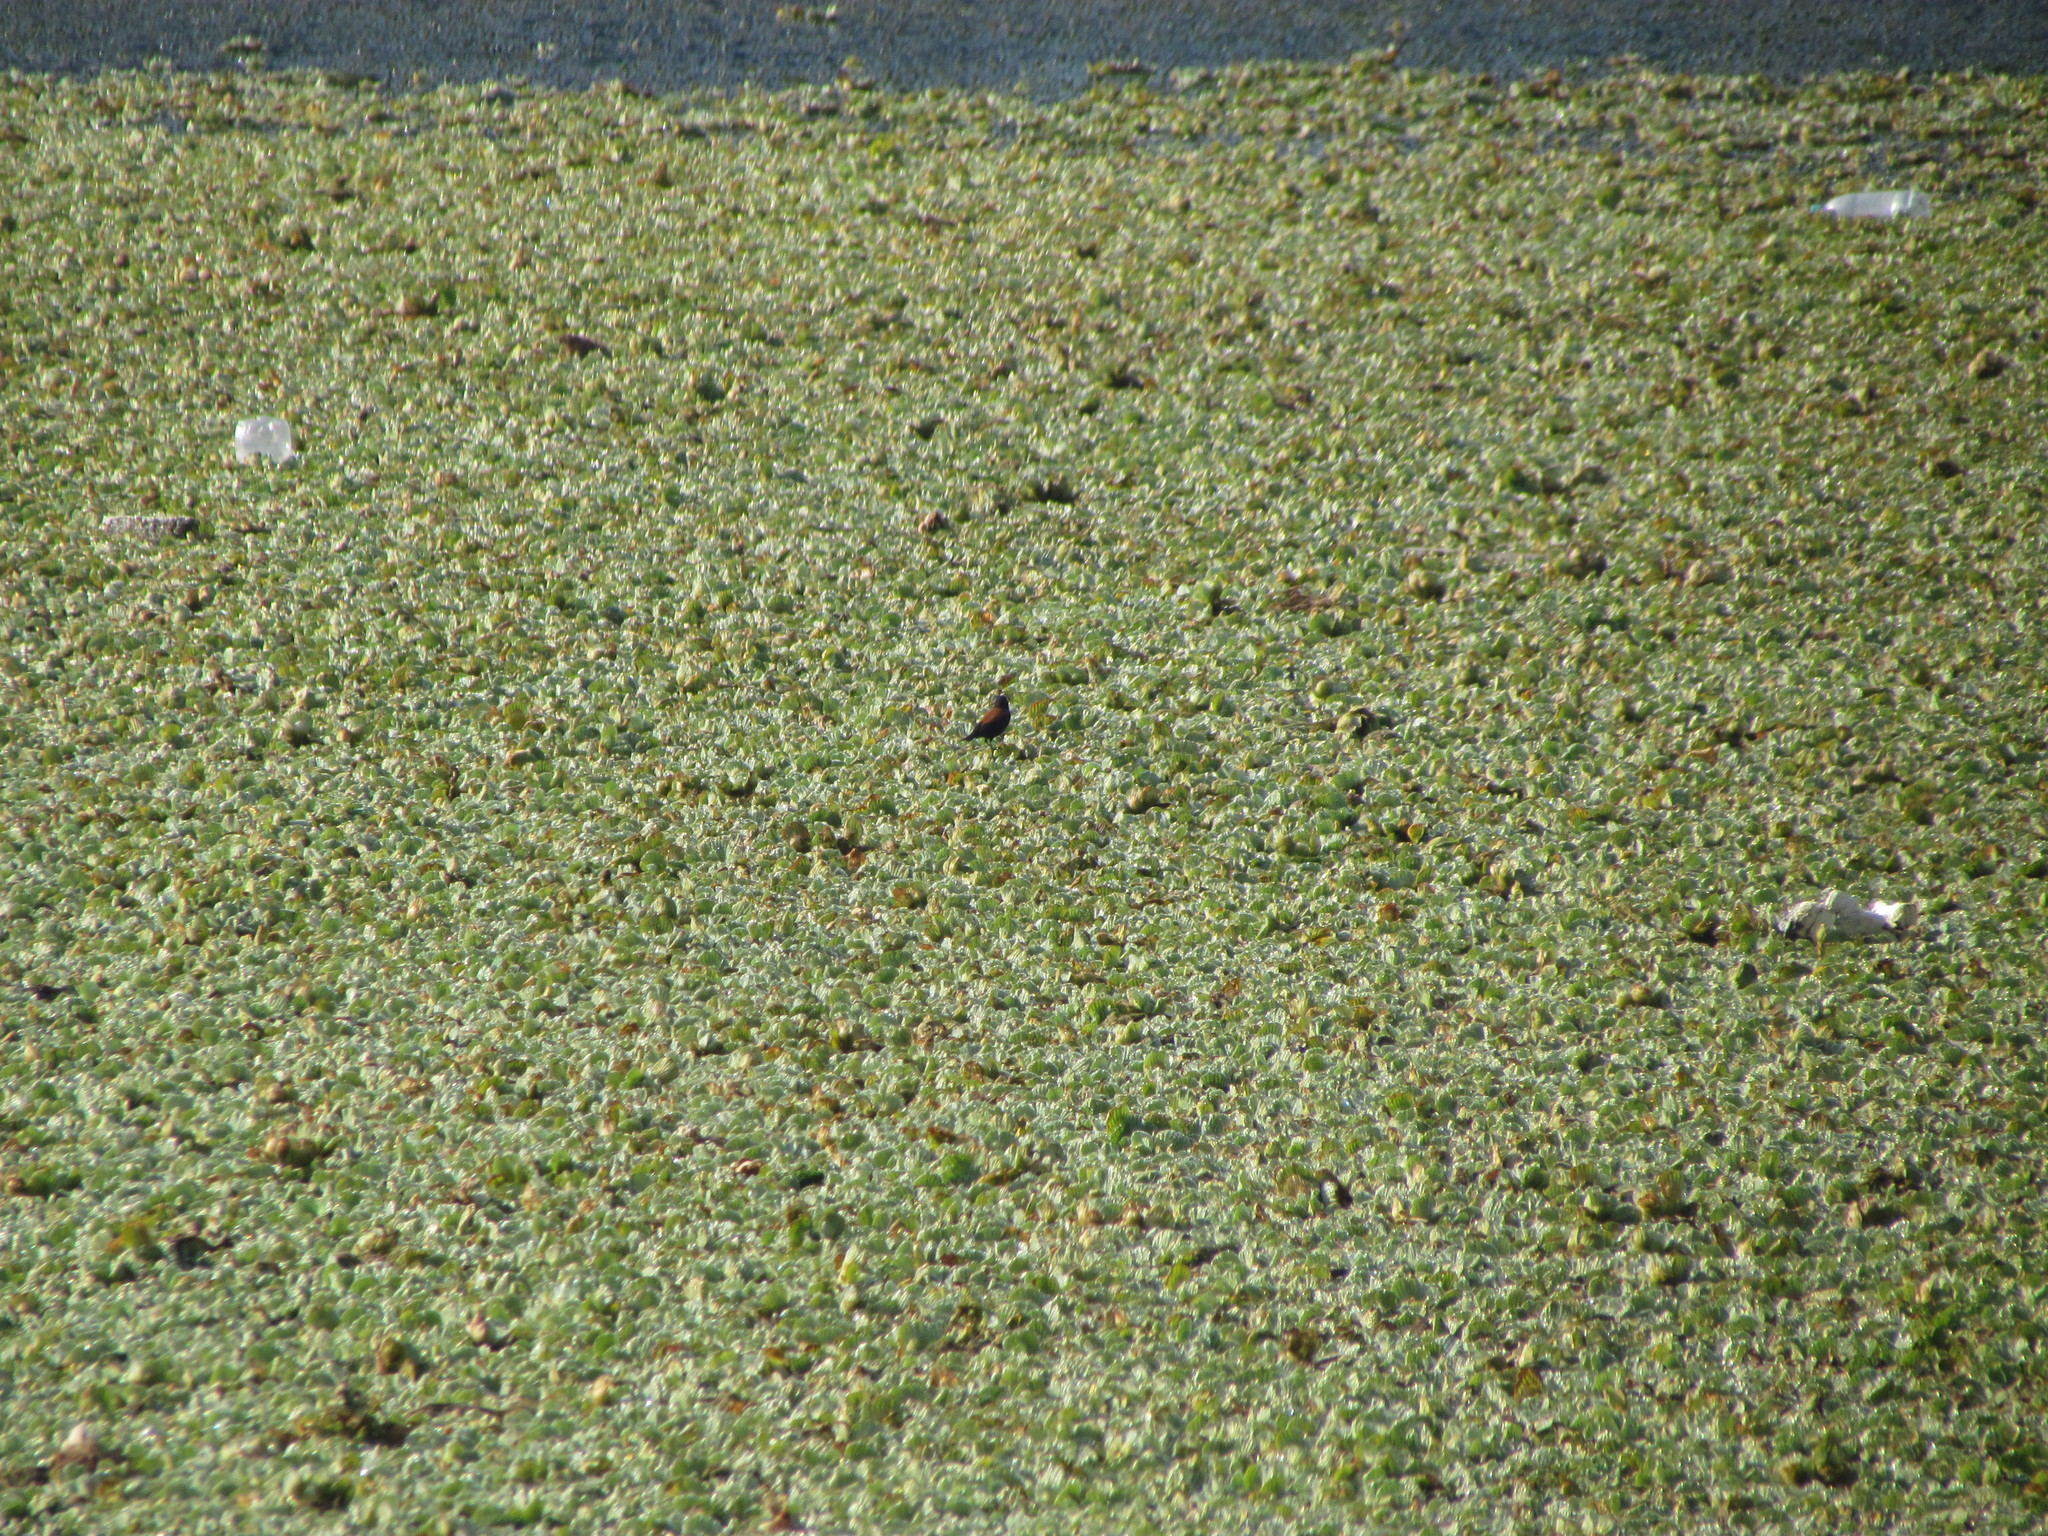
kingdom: Animalia
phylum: Chordata
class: Aves
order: Passeriformes
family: Tyrannidae
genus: Lessonia
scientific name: Lessonia rufa
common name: Austral negrito
